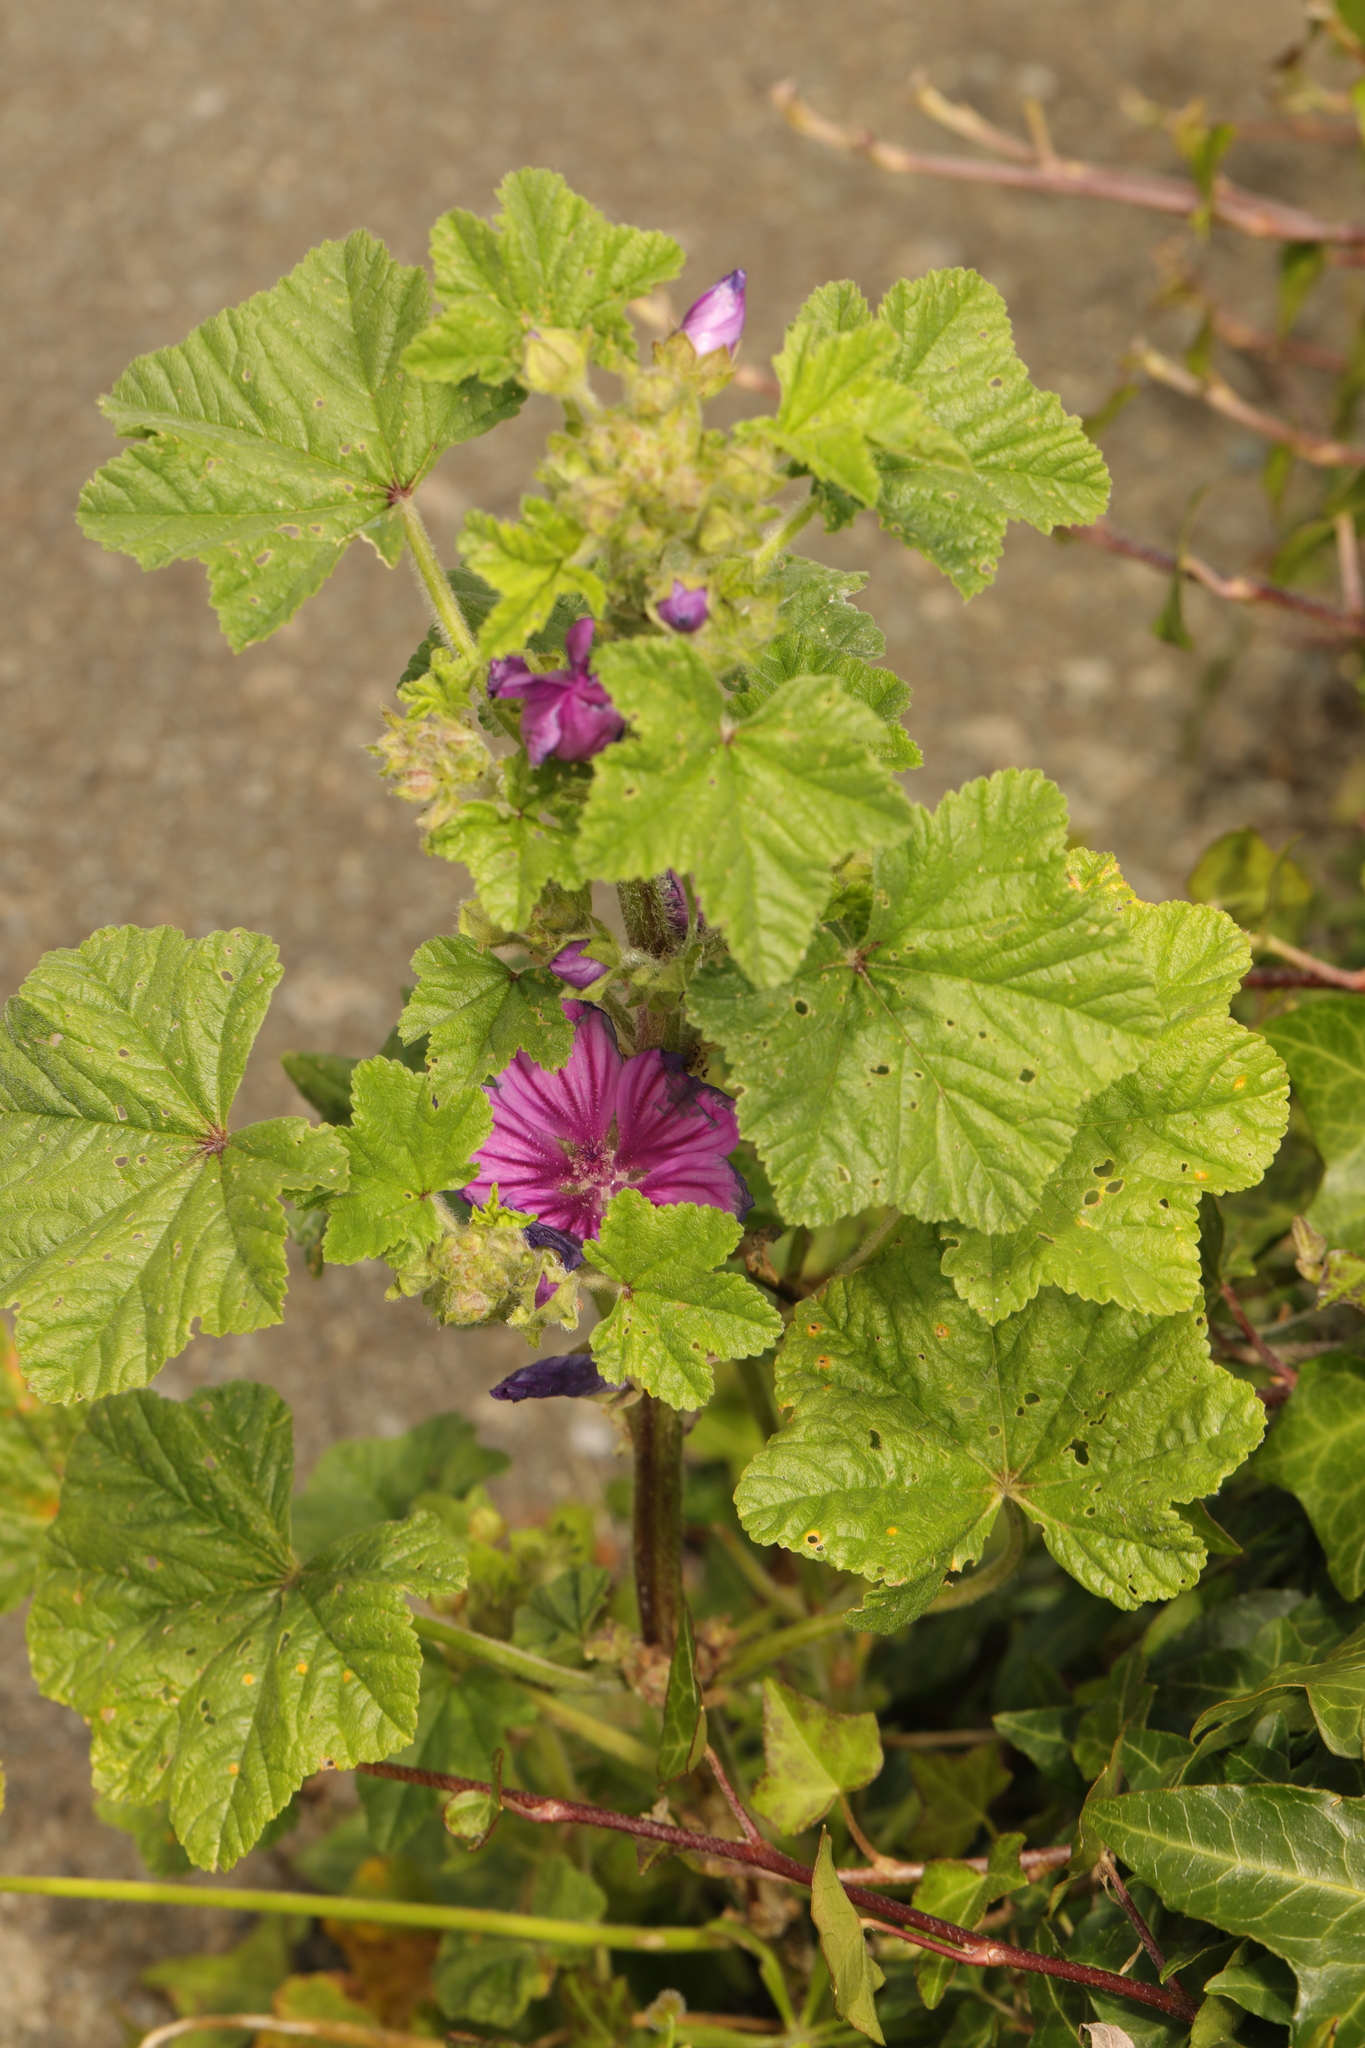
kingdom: Plantae
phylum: Tracheophyta
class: Magnoliopsida
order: Malvales
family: Malvaceae
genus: Malva
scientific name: Malva sylvestris
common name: Common mallow
